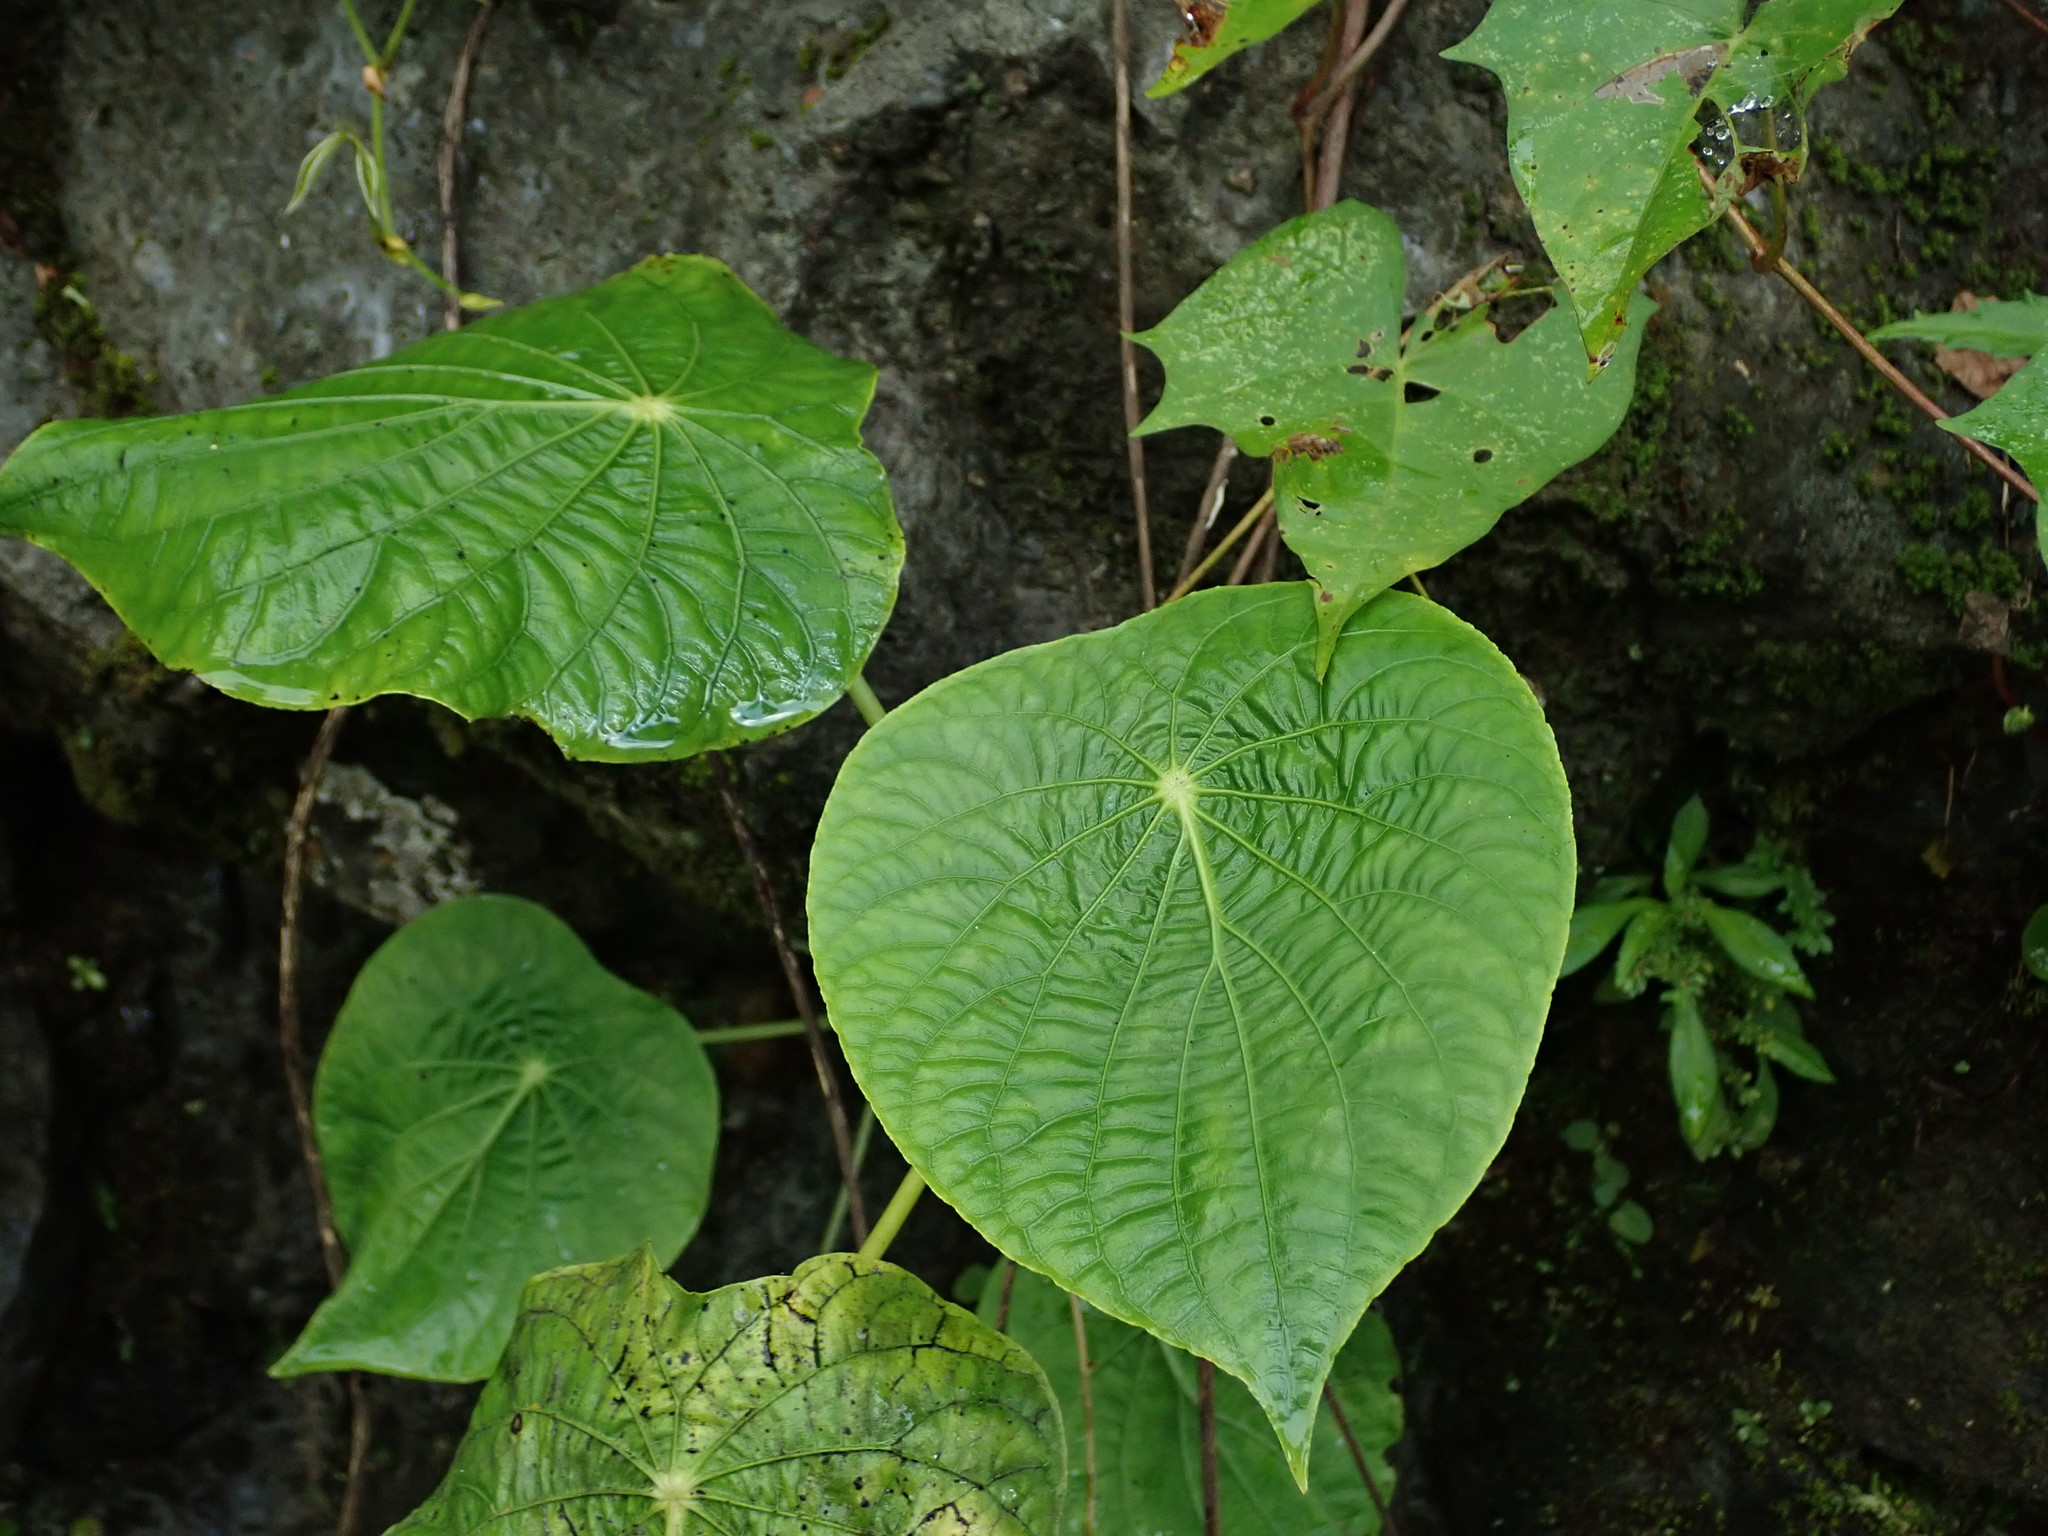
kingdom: Plantae
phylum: Tracheophyta
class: Magnoliopsida
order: Piperales
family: Piperaceae
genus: Piper
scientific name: Piper peltatum
